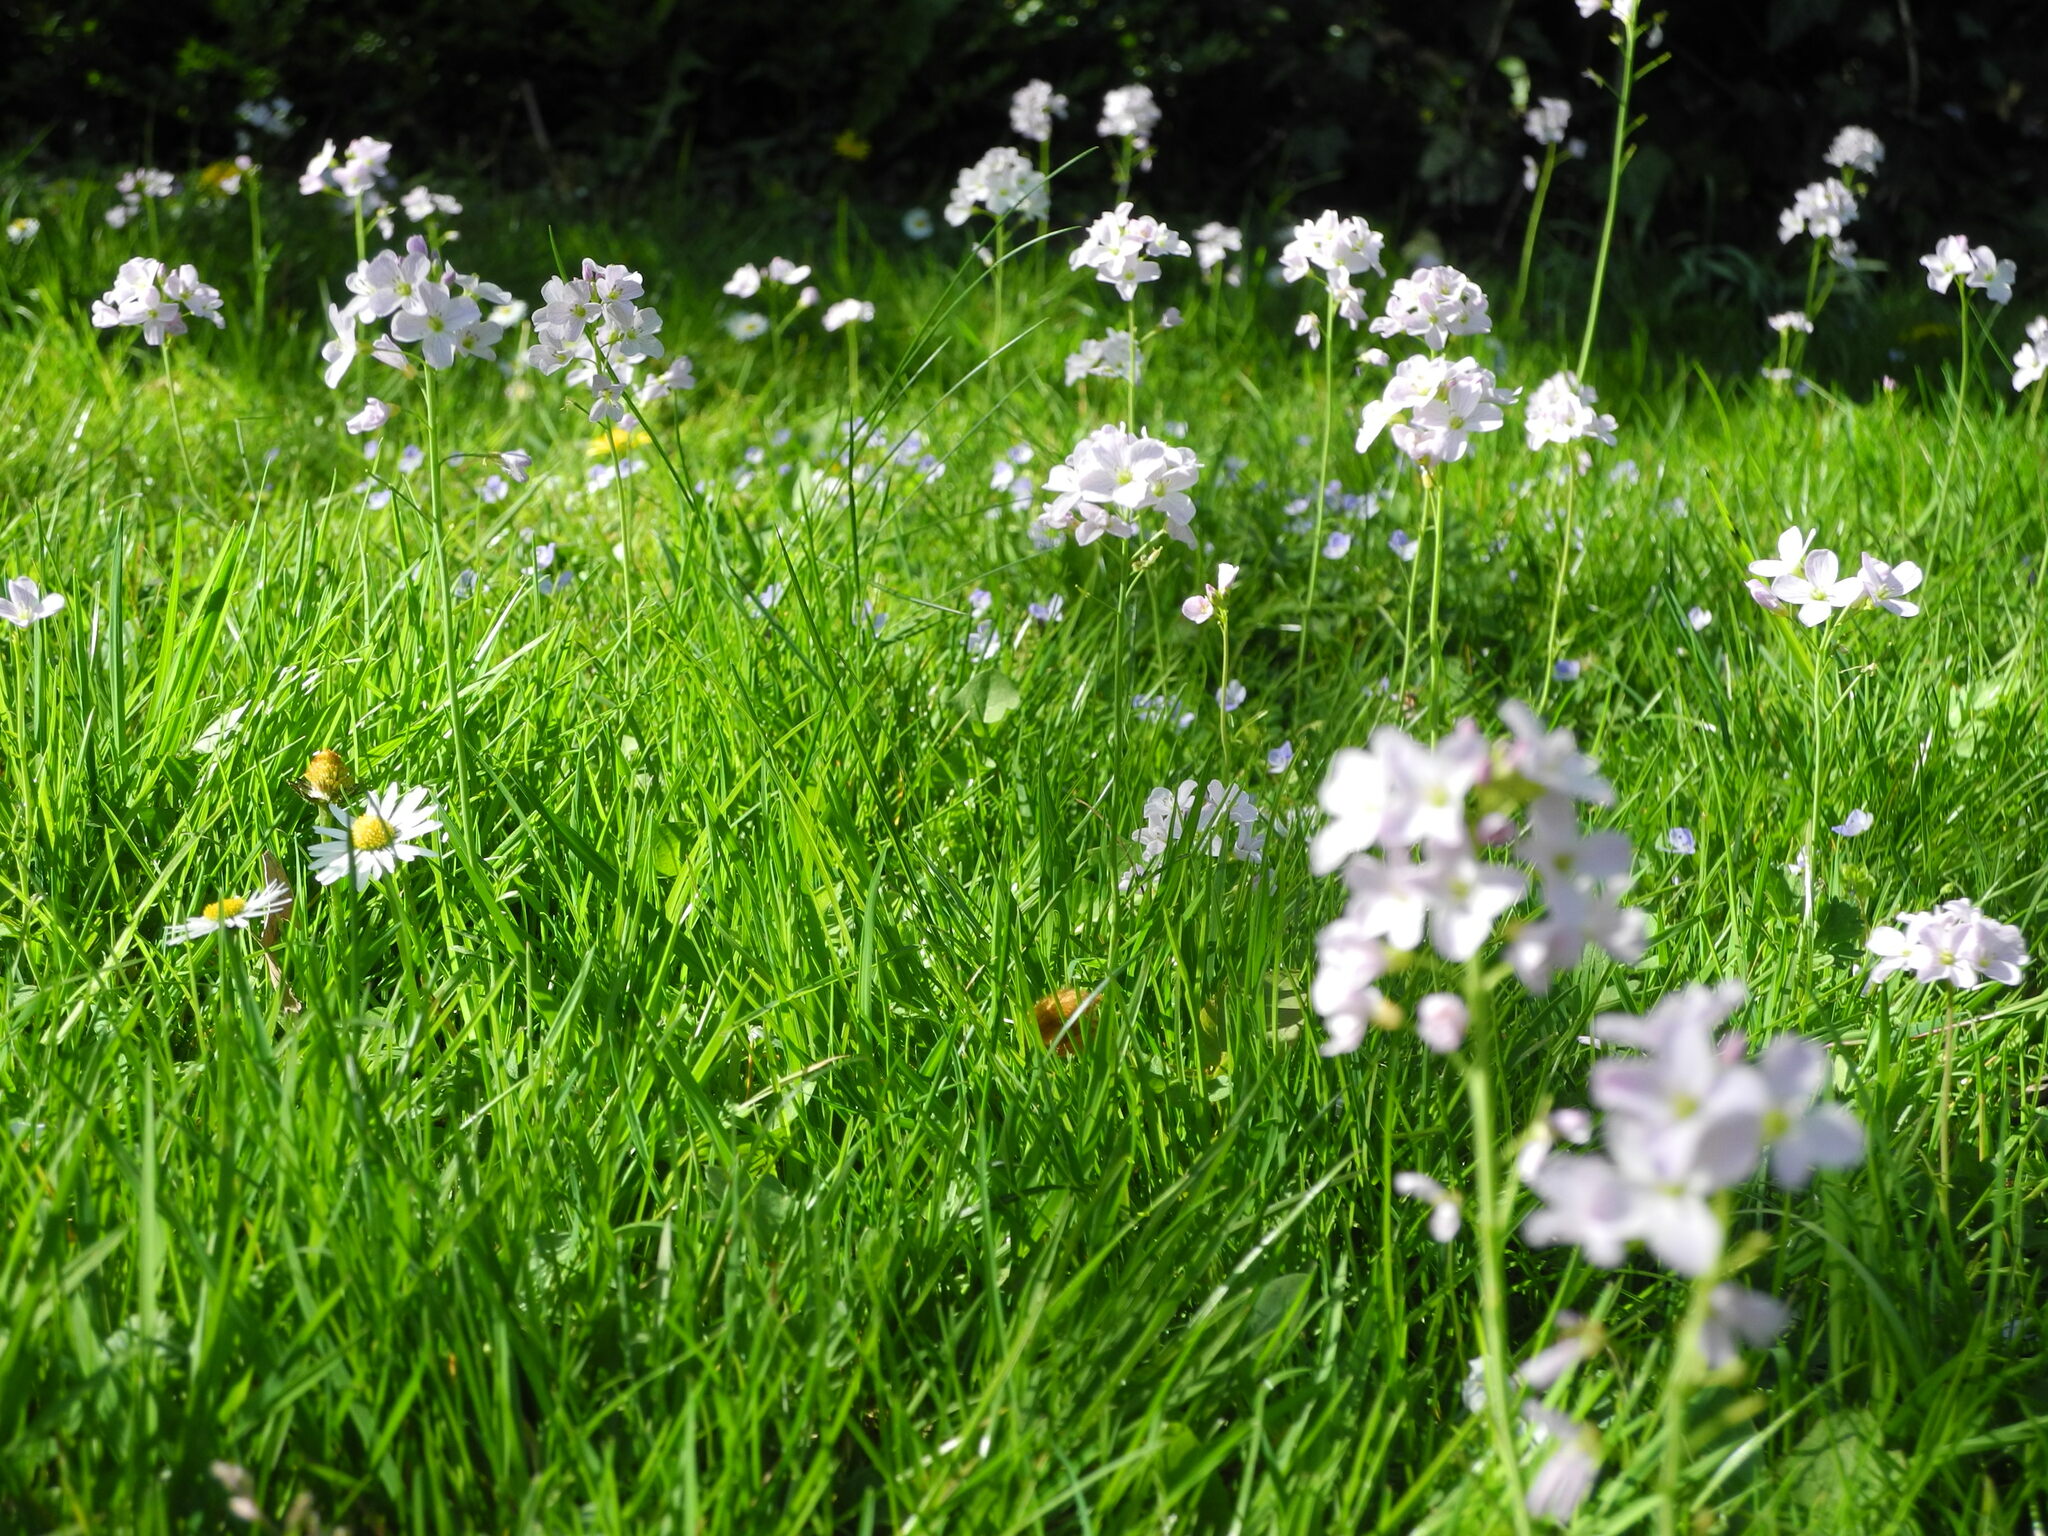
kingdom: Plantae
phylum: Tracheophyta
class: Magnoliopsida
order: Brassicales
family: Brassicaceae
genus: Cardamine
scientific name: Cardamine pratensis
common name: Cuckoo flower
